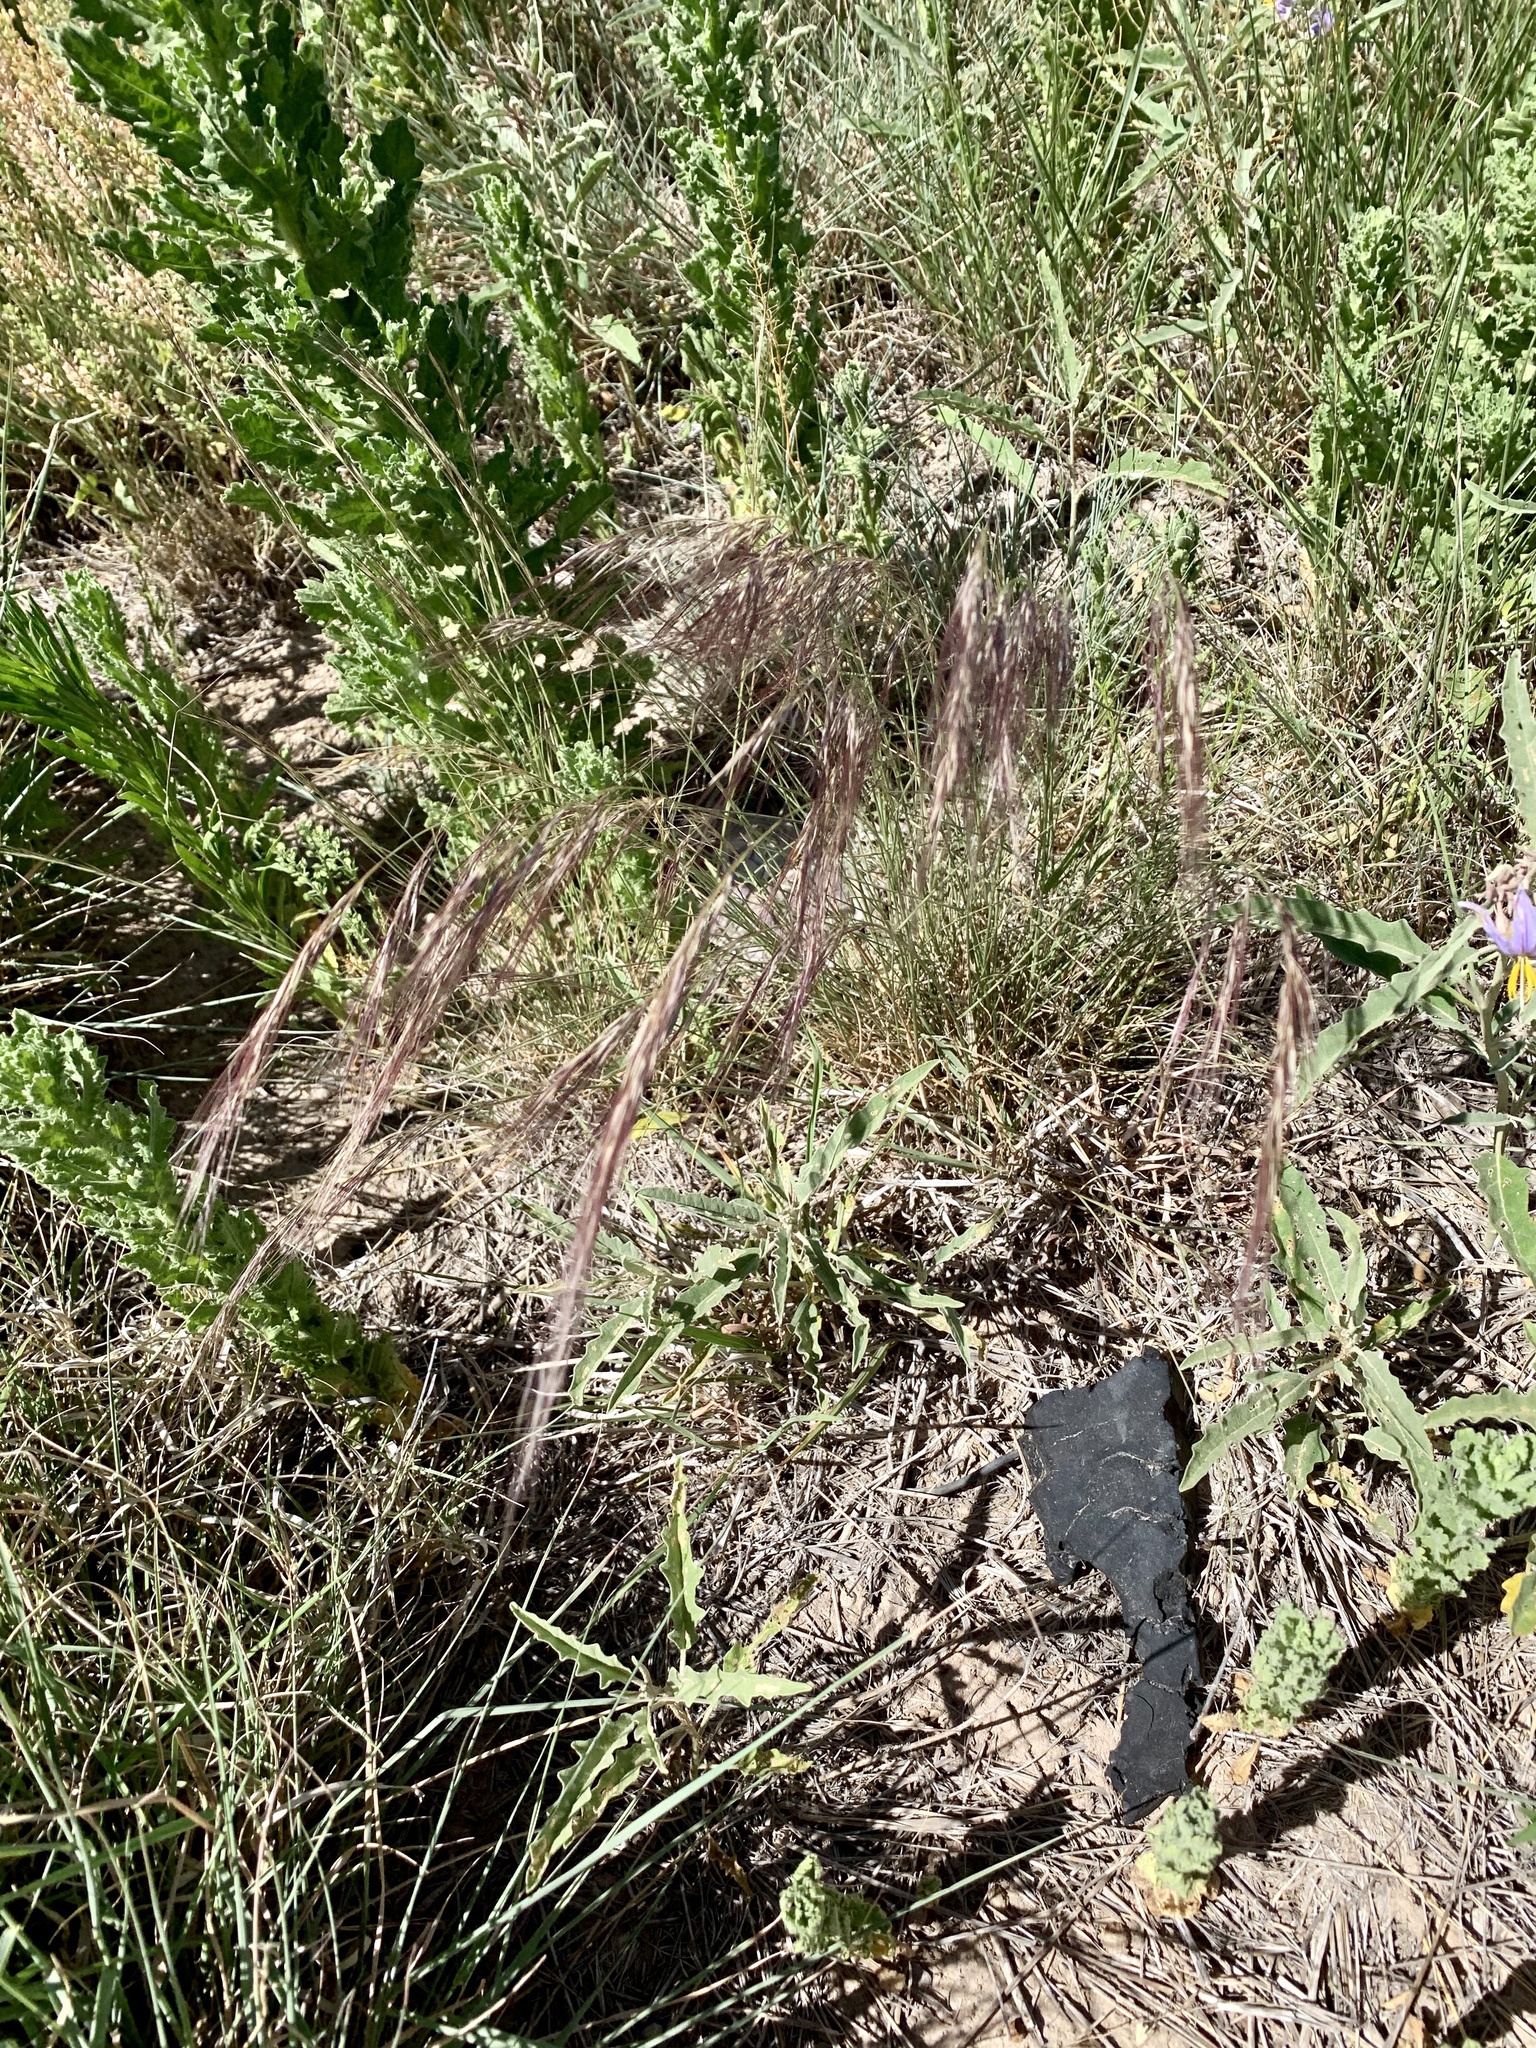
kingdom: Plantae
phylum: Tracheophyta
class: Liliopsida
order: Poales
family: Poaceae
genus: Aristida
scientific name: Aristida purpurea
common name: Purple threeawn
